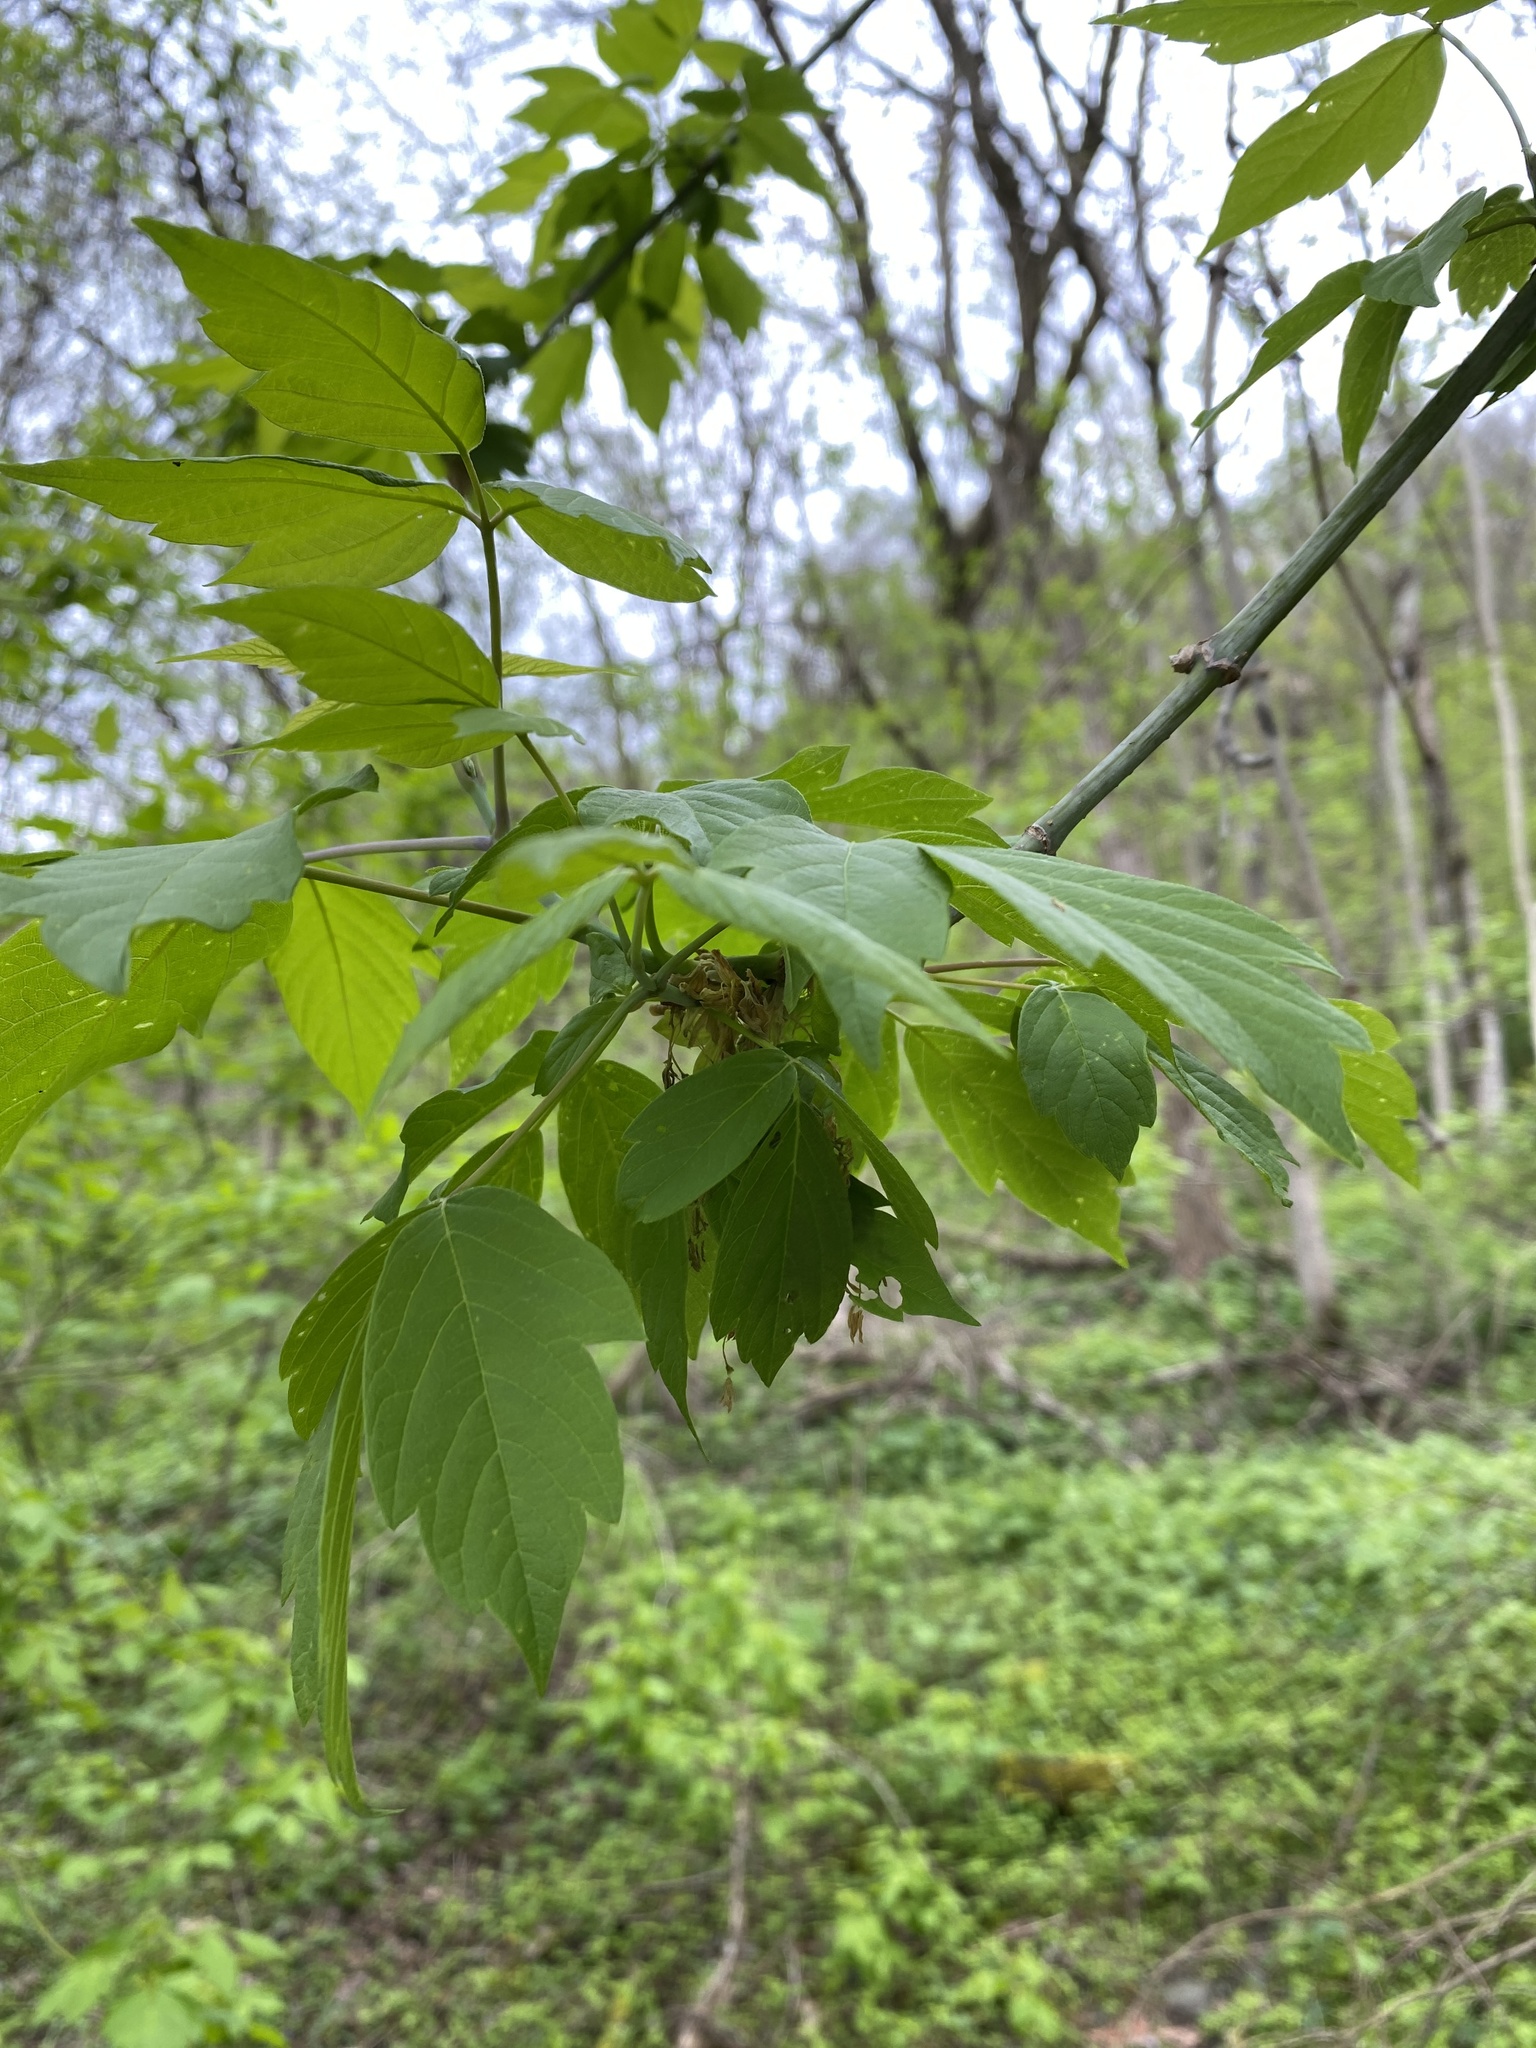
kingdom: Plantae
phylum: Tracheophyta
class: Magnoliopsida
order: Sapindales
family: Sapindaceae
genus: Acer
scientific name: Acer negundo
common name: Ashleaf maple
